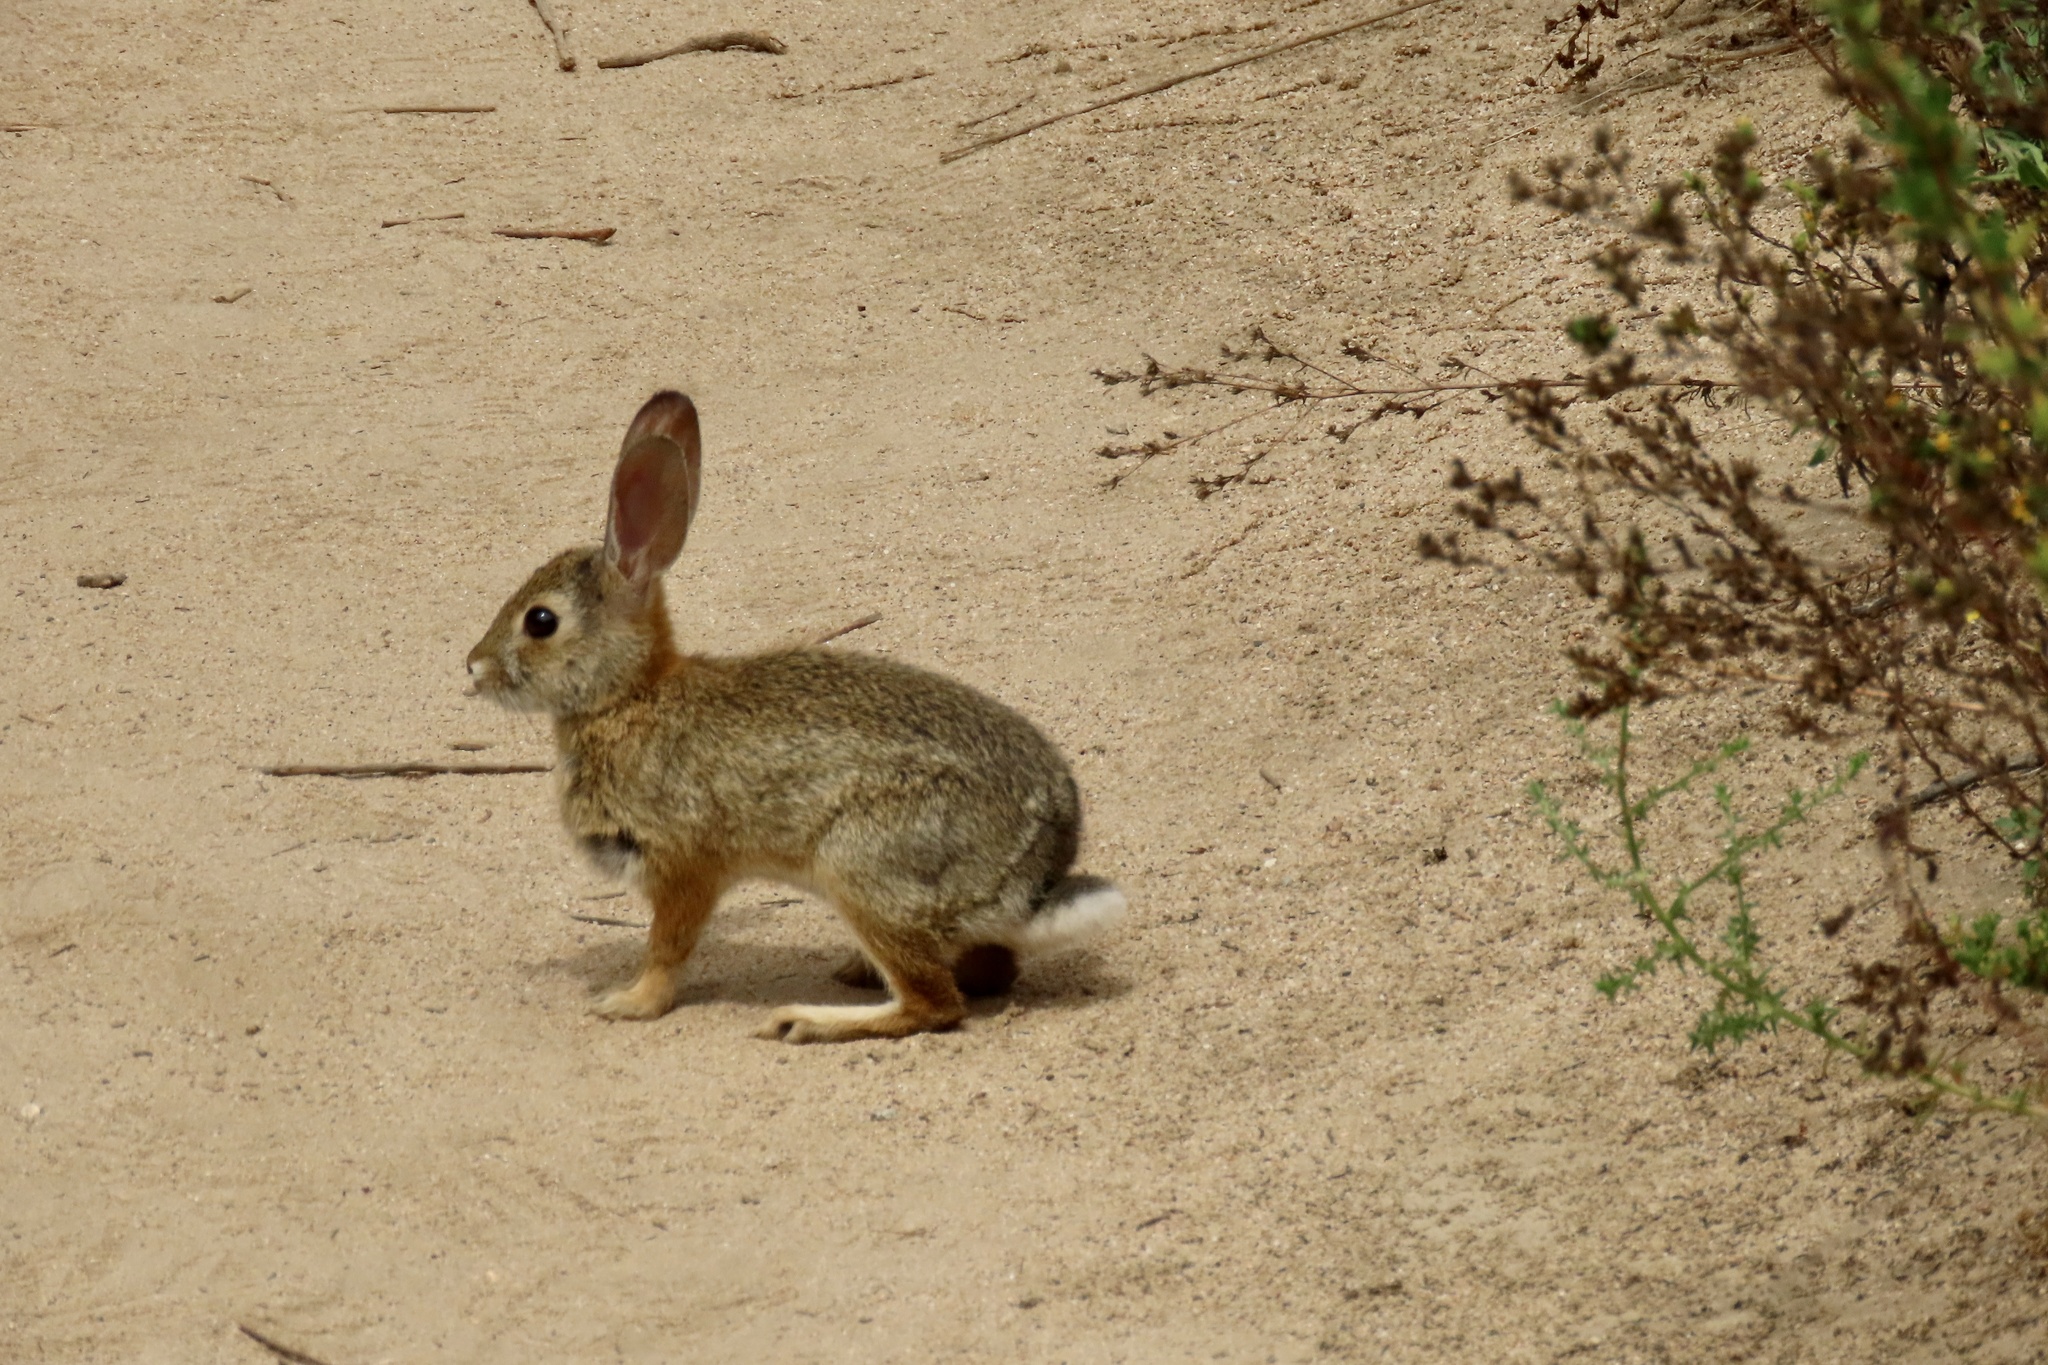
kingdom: Animalia
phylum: Chordata
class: Mammalia
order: Lagomorpha
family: Leporidae
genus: Sylvilagus
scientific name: Sylvilagus audubonii
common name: Desert cottontail
